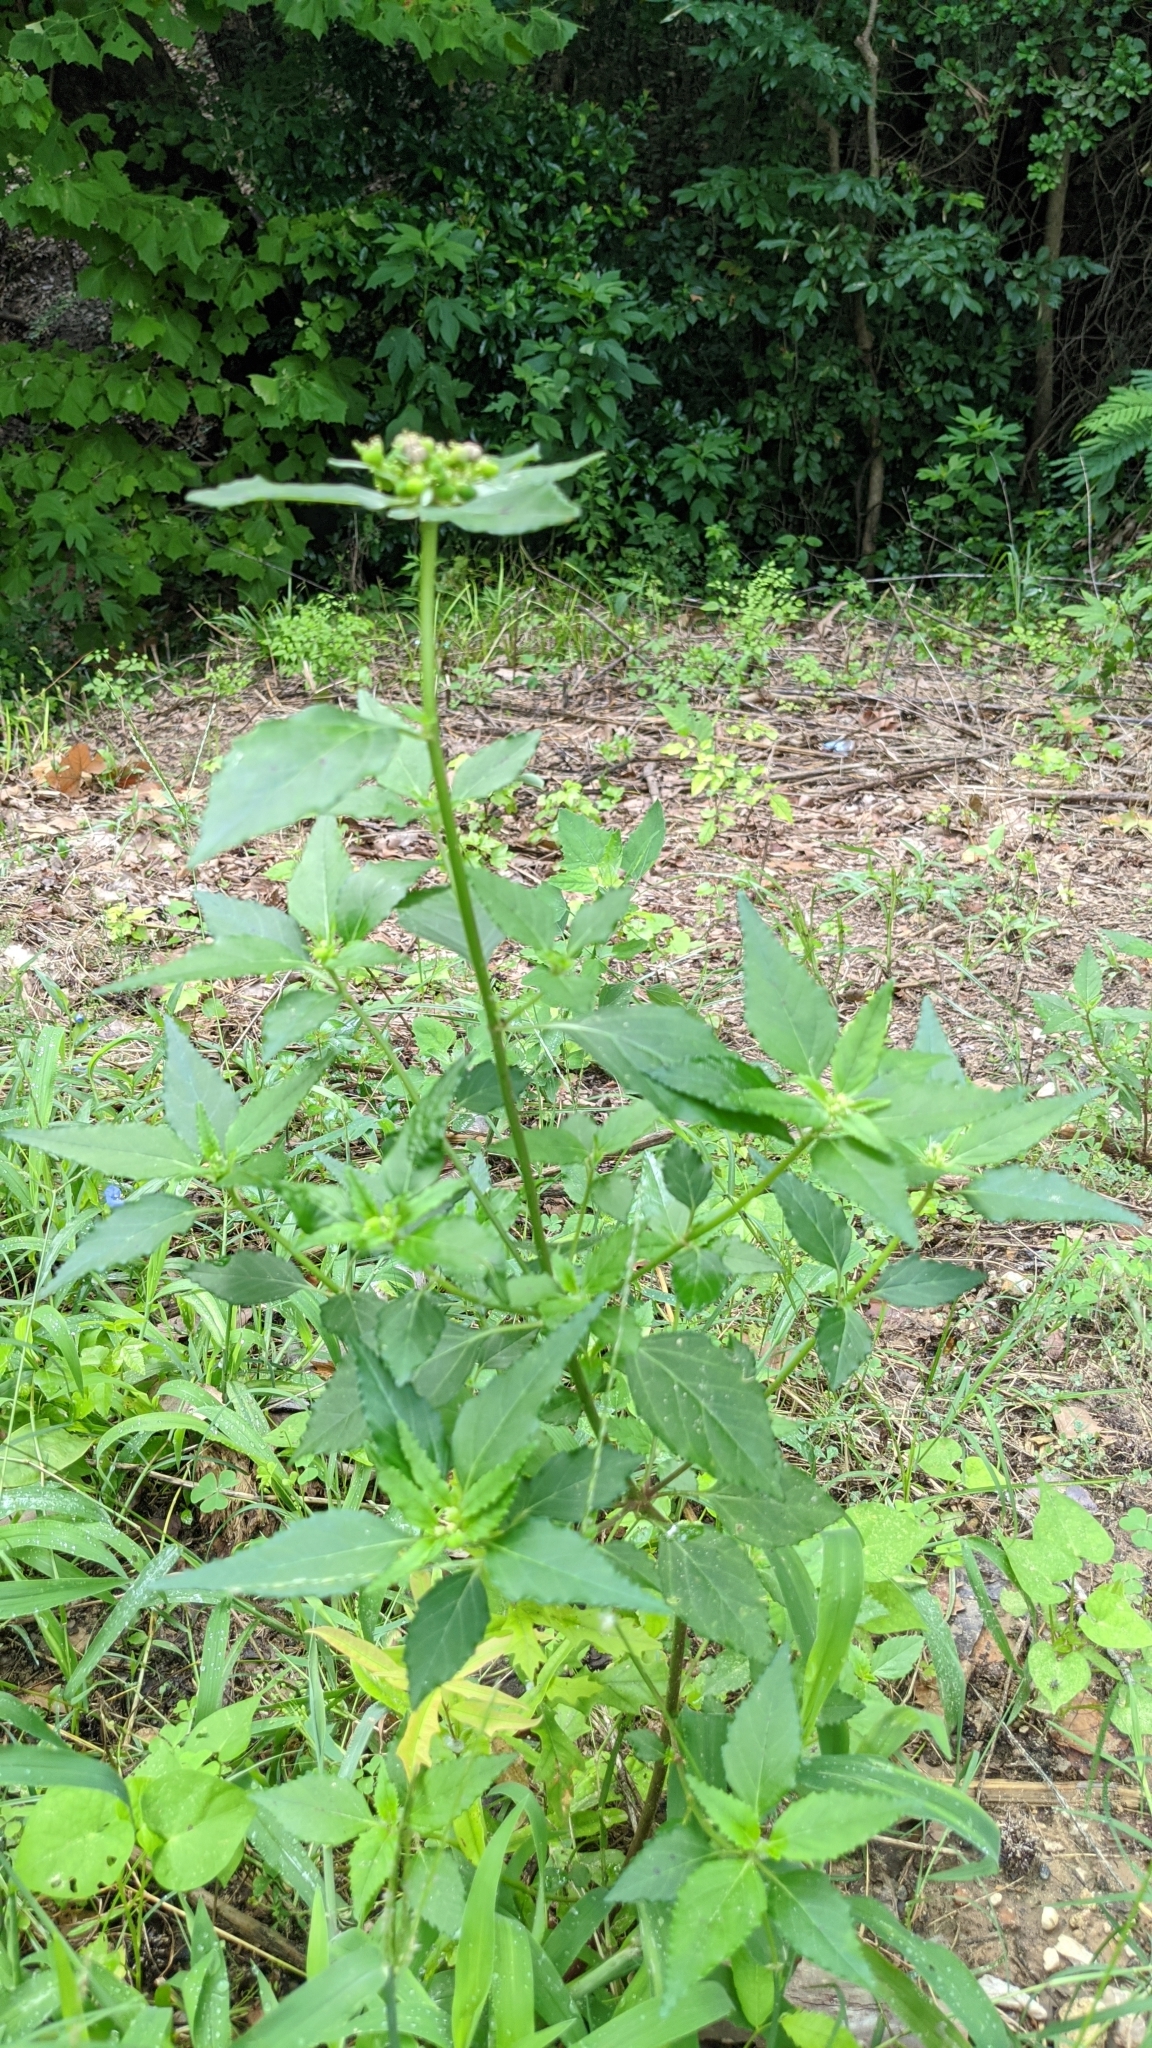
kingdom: Plantae
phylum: Tracheophyta
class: Magnoliopsida
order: Malpighiales
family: Euphorbiaceae
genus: Euphorbia
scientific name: Euphorbia dentata
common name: Dentate spurge
